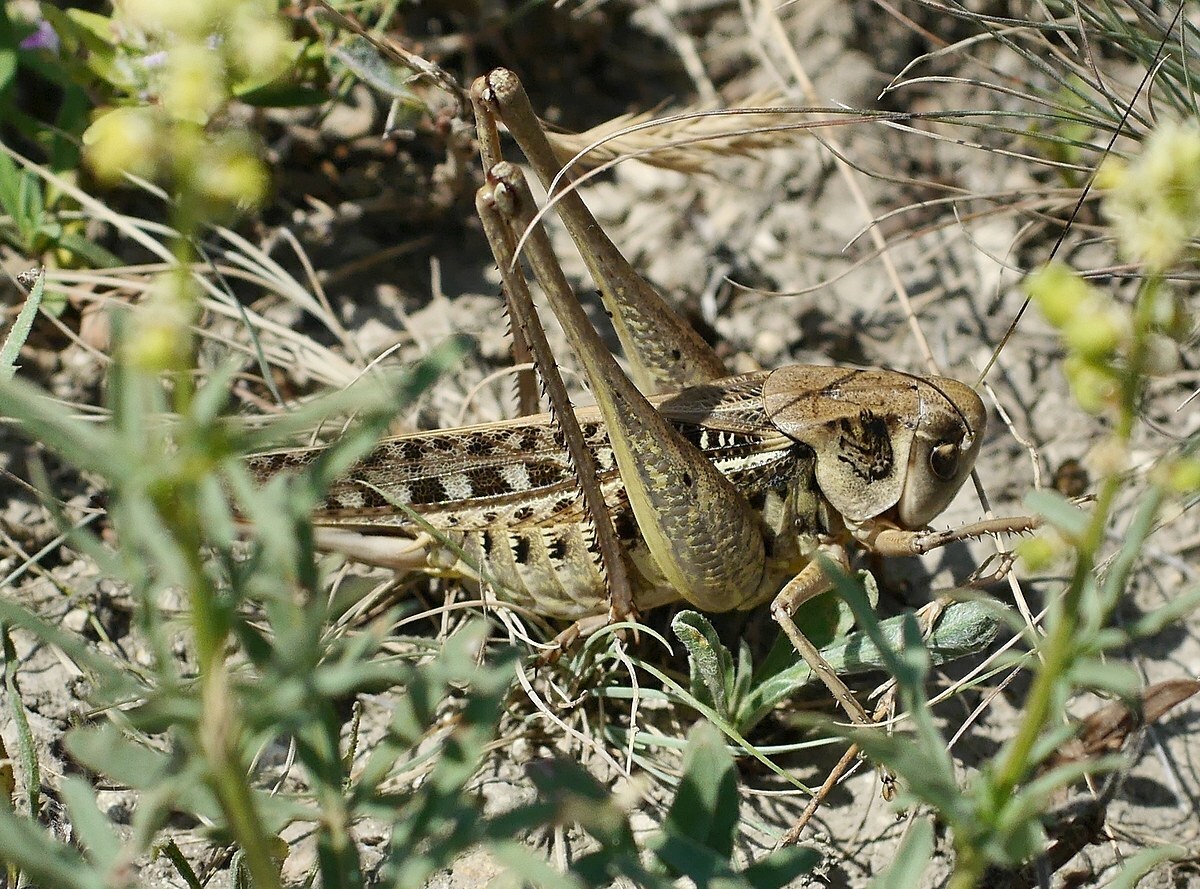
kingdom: Animalia
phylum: Arthropoda
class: Insecta
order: Orthoptera
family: Tettigoniidae
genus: Decticus
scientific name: Decticus verrucivorus
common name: Wart-biter
